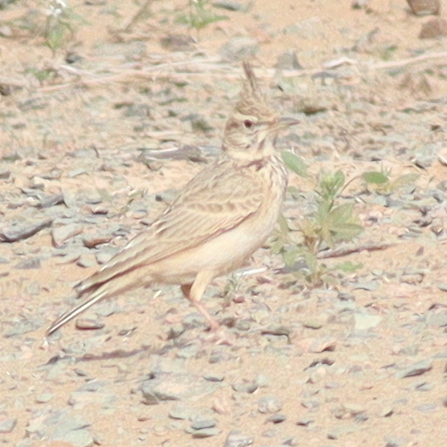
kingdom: Animalia
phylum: Chordata
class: Aves
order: Passeriformes
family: Alaudidae
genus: Galerida
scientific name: Galerida cristata
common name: Crested lark
